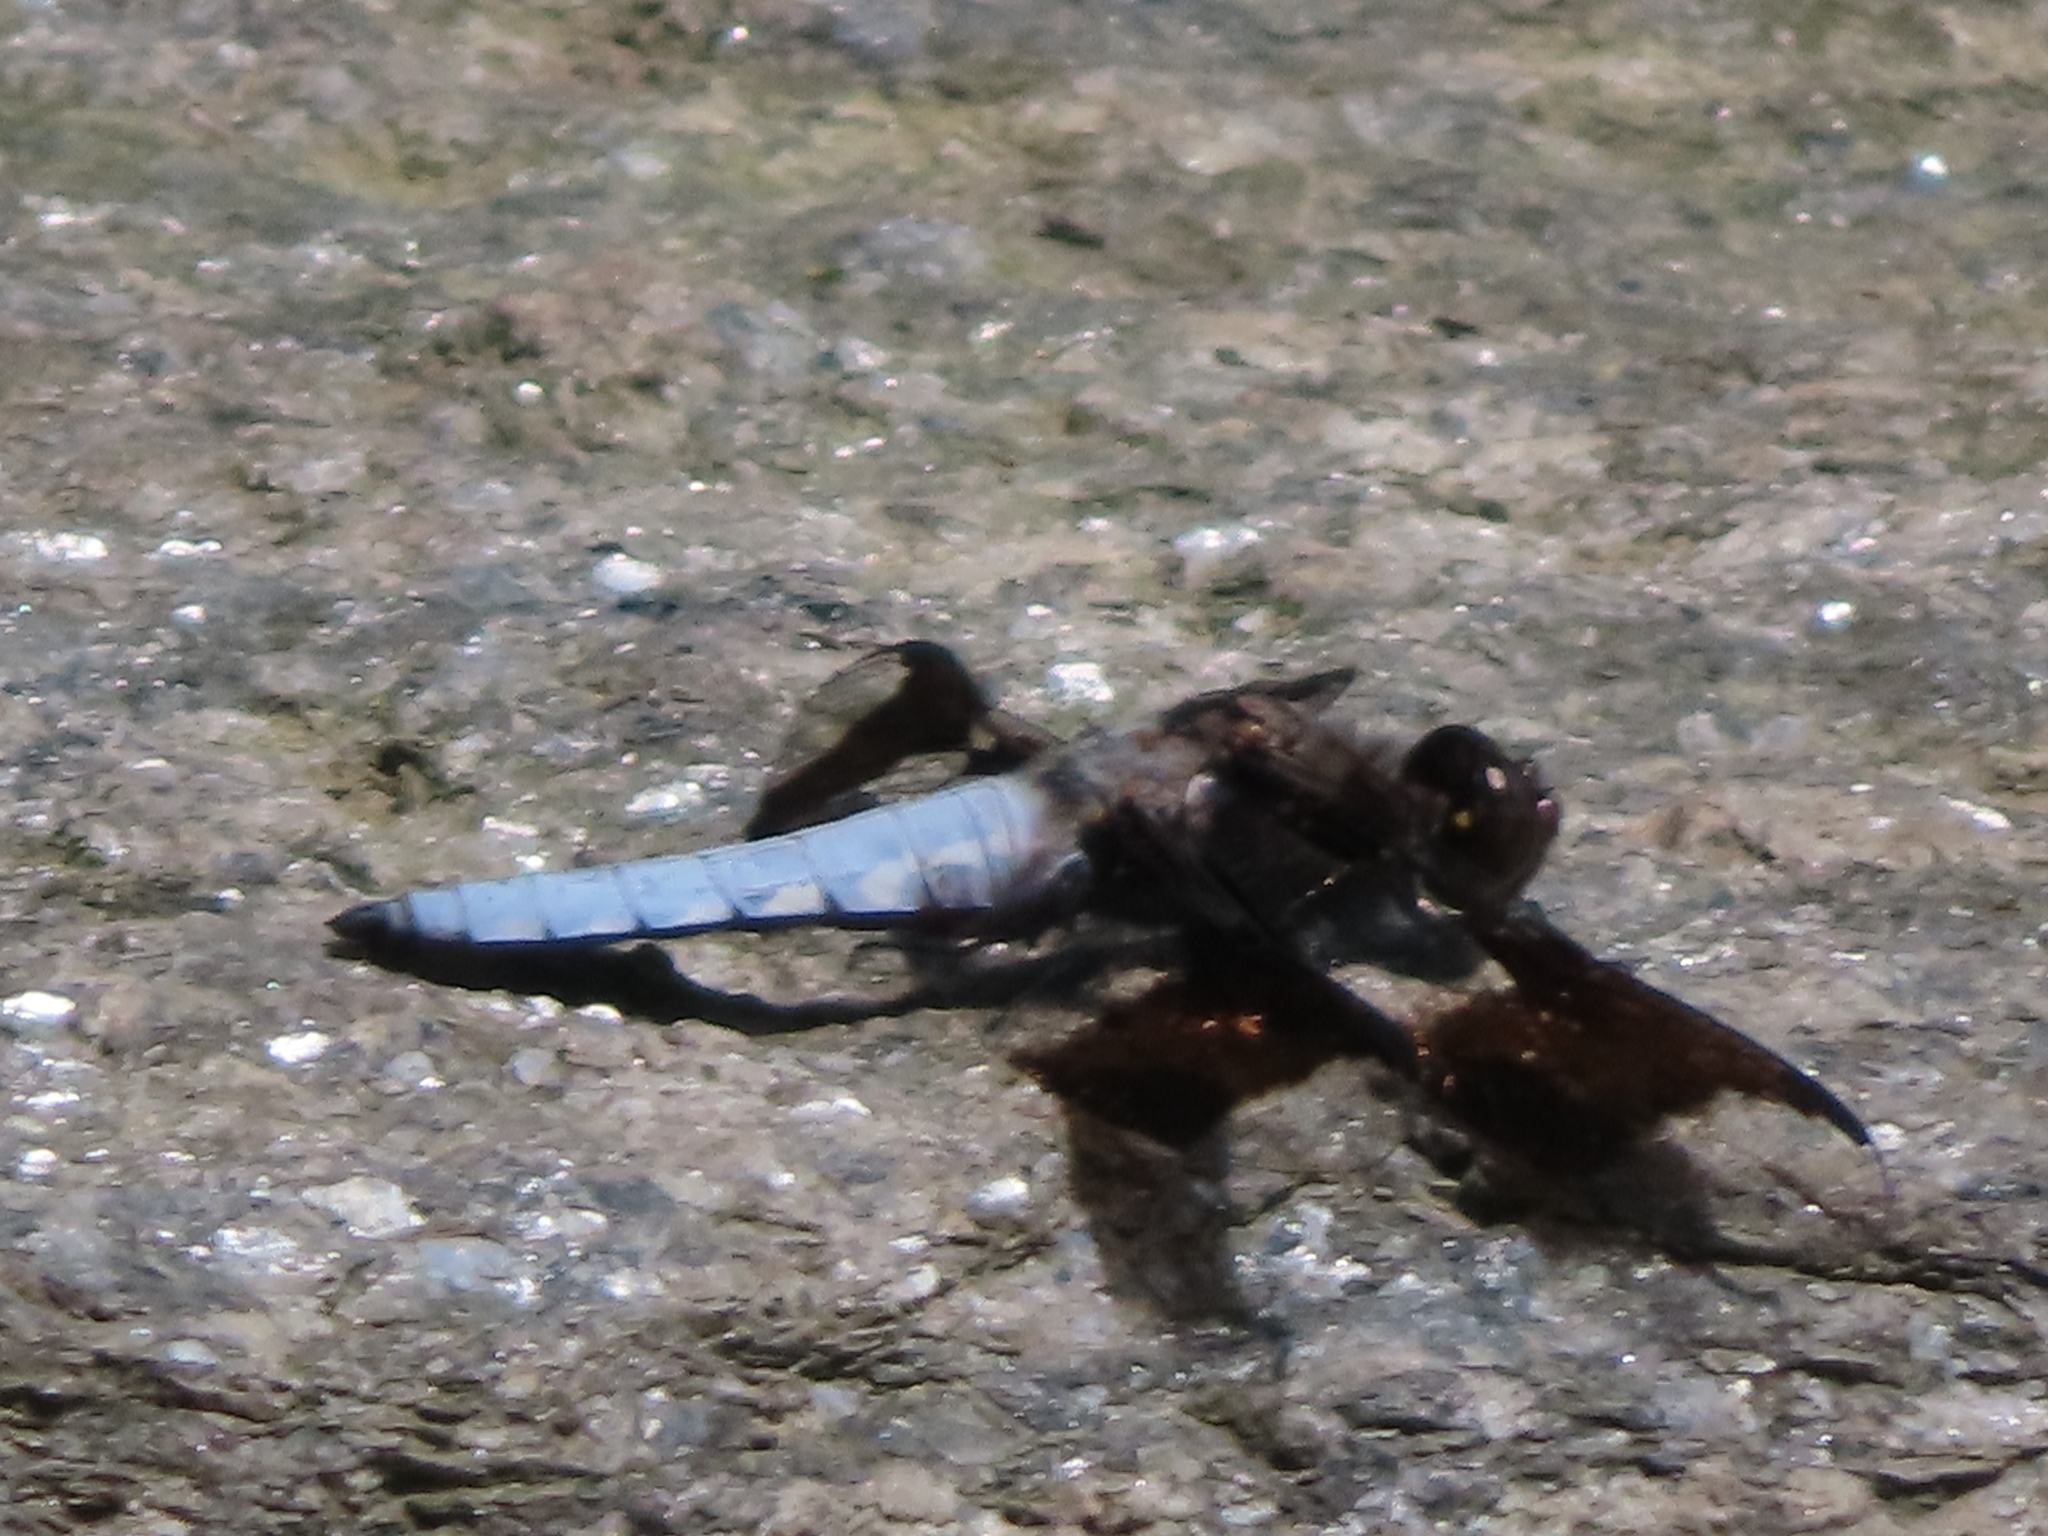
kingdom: Animalia
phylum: Arthropoda
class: Insecta
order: Odonata
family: Libellulidae
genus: Plathemis
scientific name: Plathemis lydia
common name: Common whitetail
